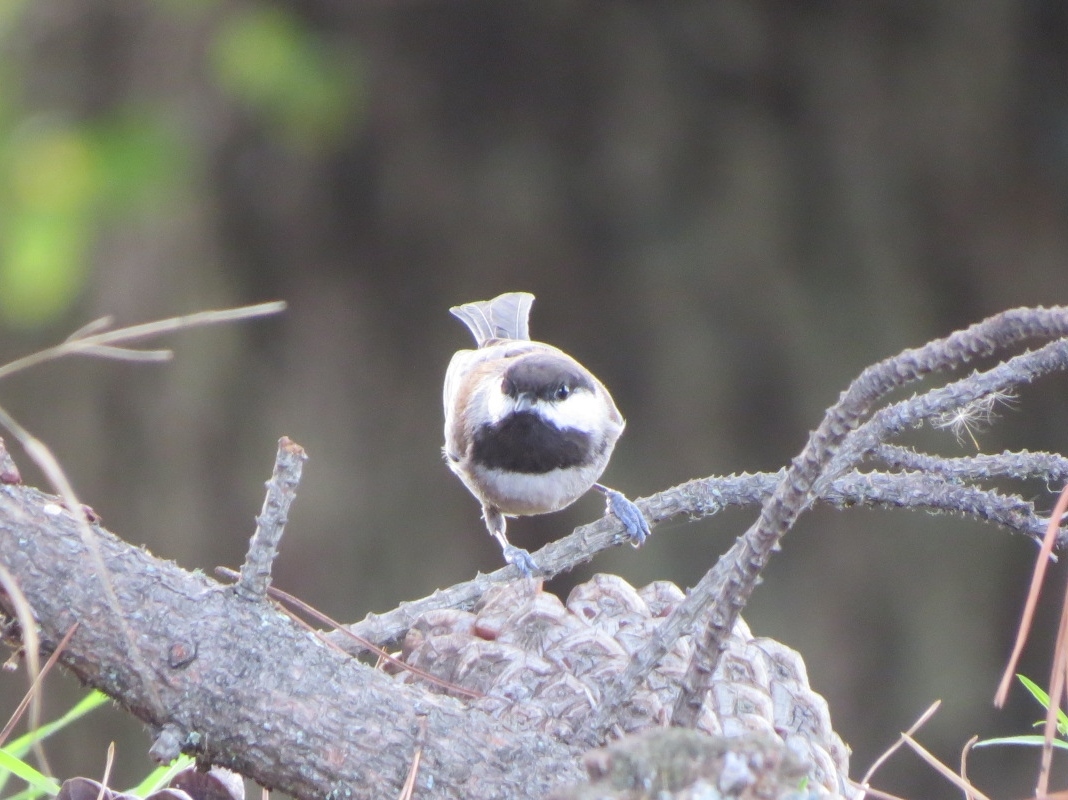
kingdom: Animalia
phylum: Chordata
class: Aves
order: Passeriformes
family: Paridae
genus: Poecile
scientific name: Poecile rufescens
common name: Chestnut-backed chickadee
